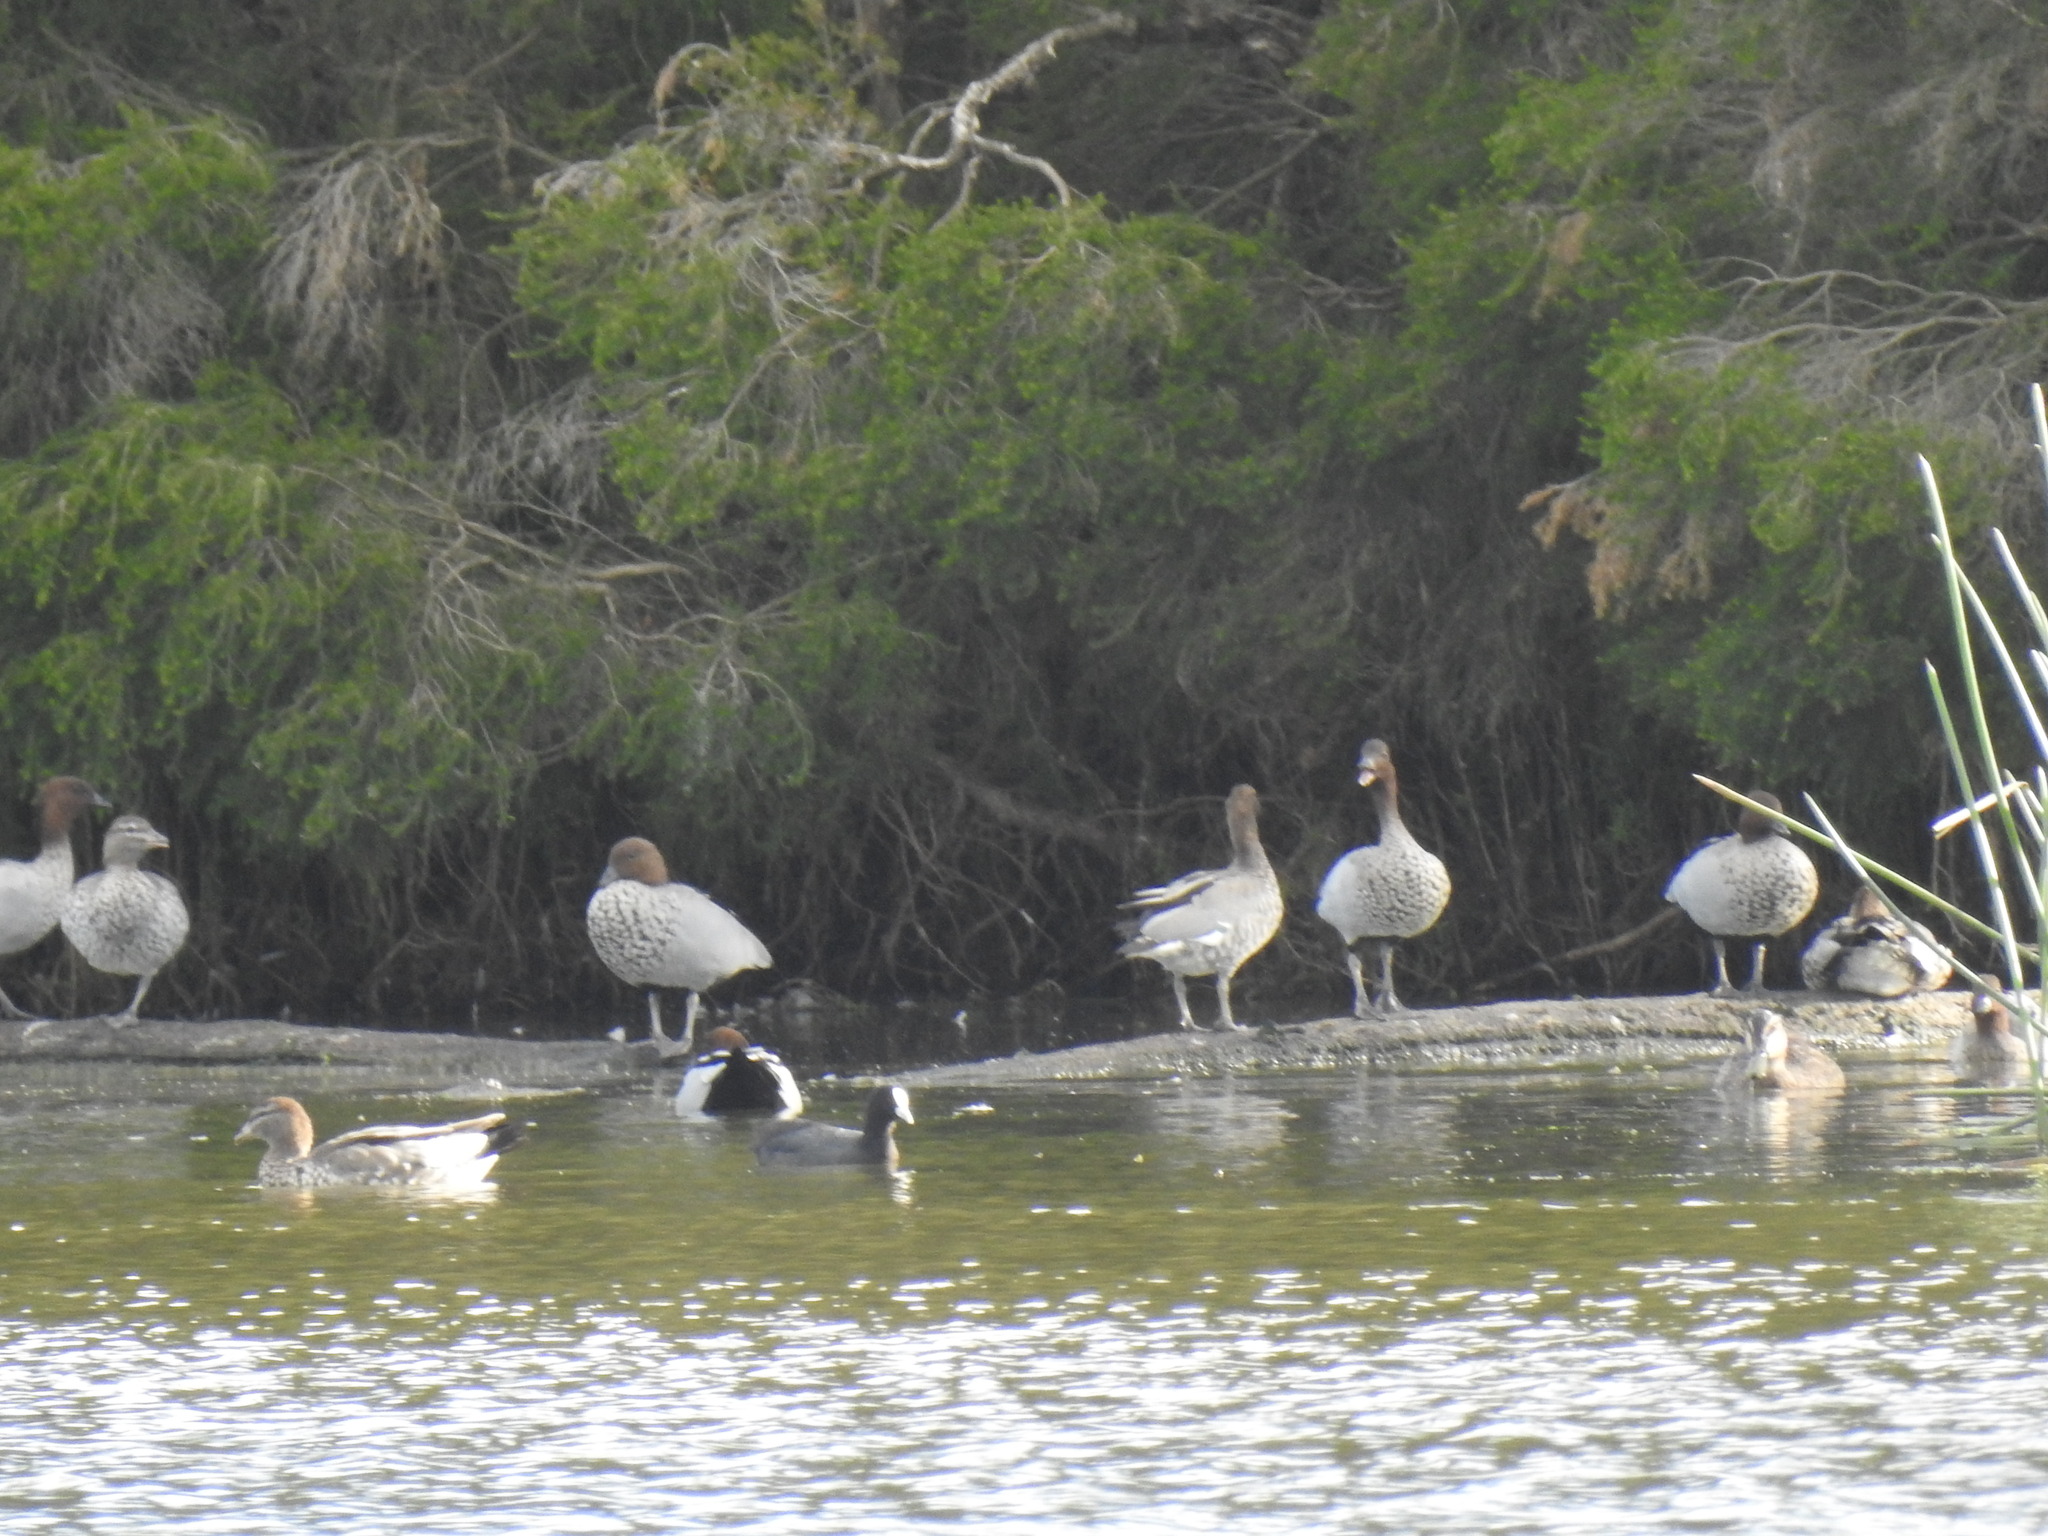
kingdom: Animalia
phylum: Chordata
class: Aves
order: Anseriformes
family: Anatidae
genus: Chenonetta
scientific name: Chenonetta jubata
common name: Maned duck
